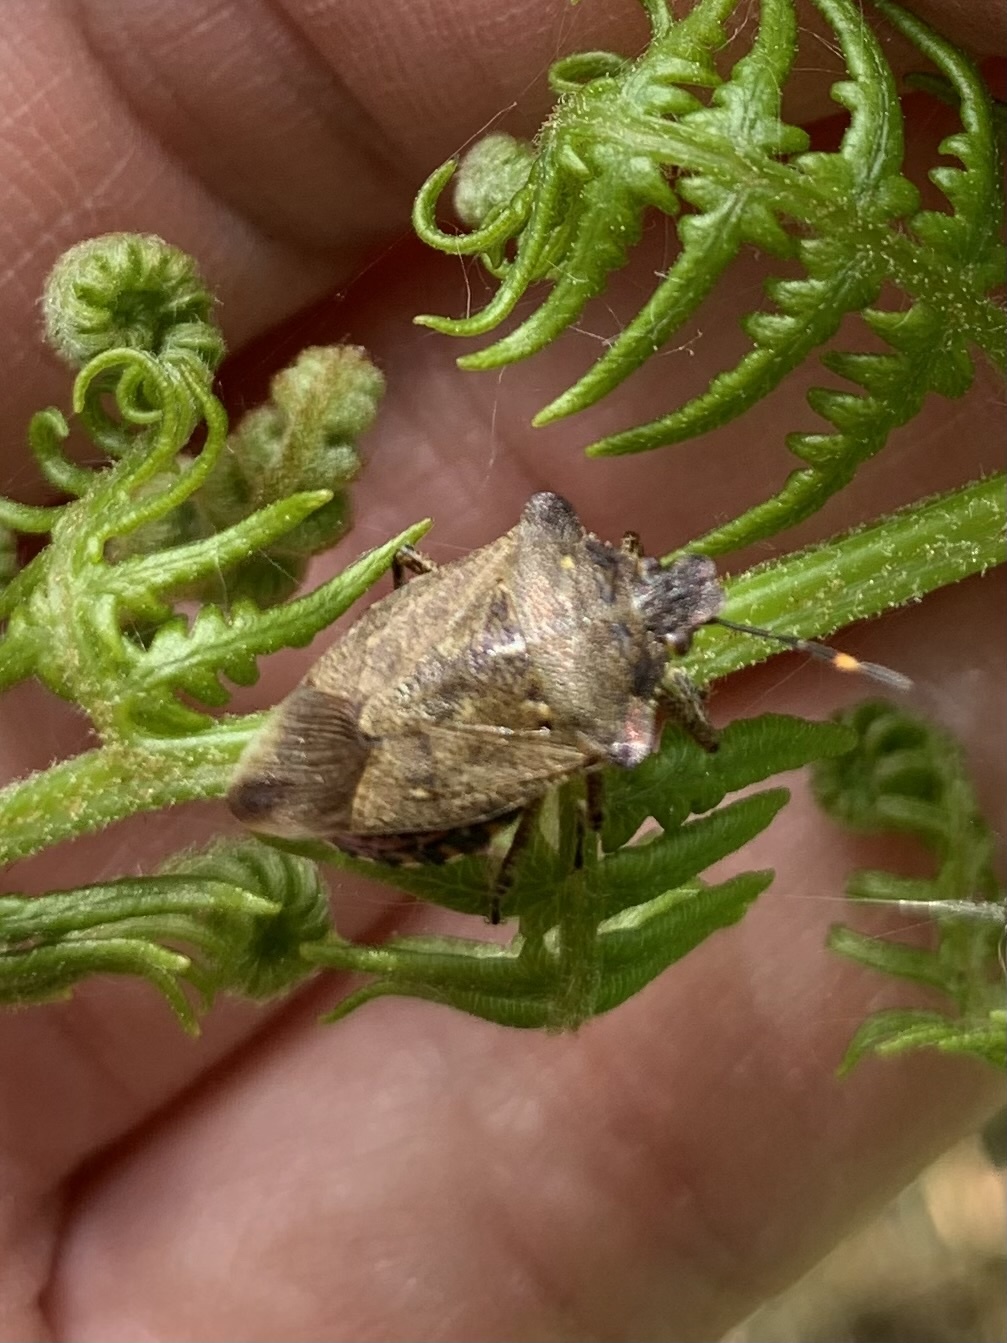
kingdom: Animalia
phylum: Arthropoda
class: Insecta
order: Hemiptera
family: Pentatomidae
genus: Troilus
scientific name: Troilus luridus
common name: Bronze shieldbug
